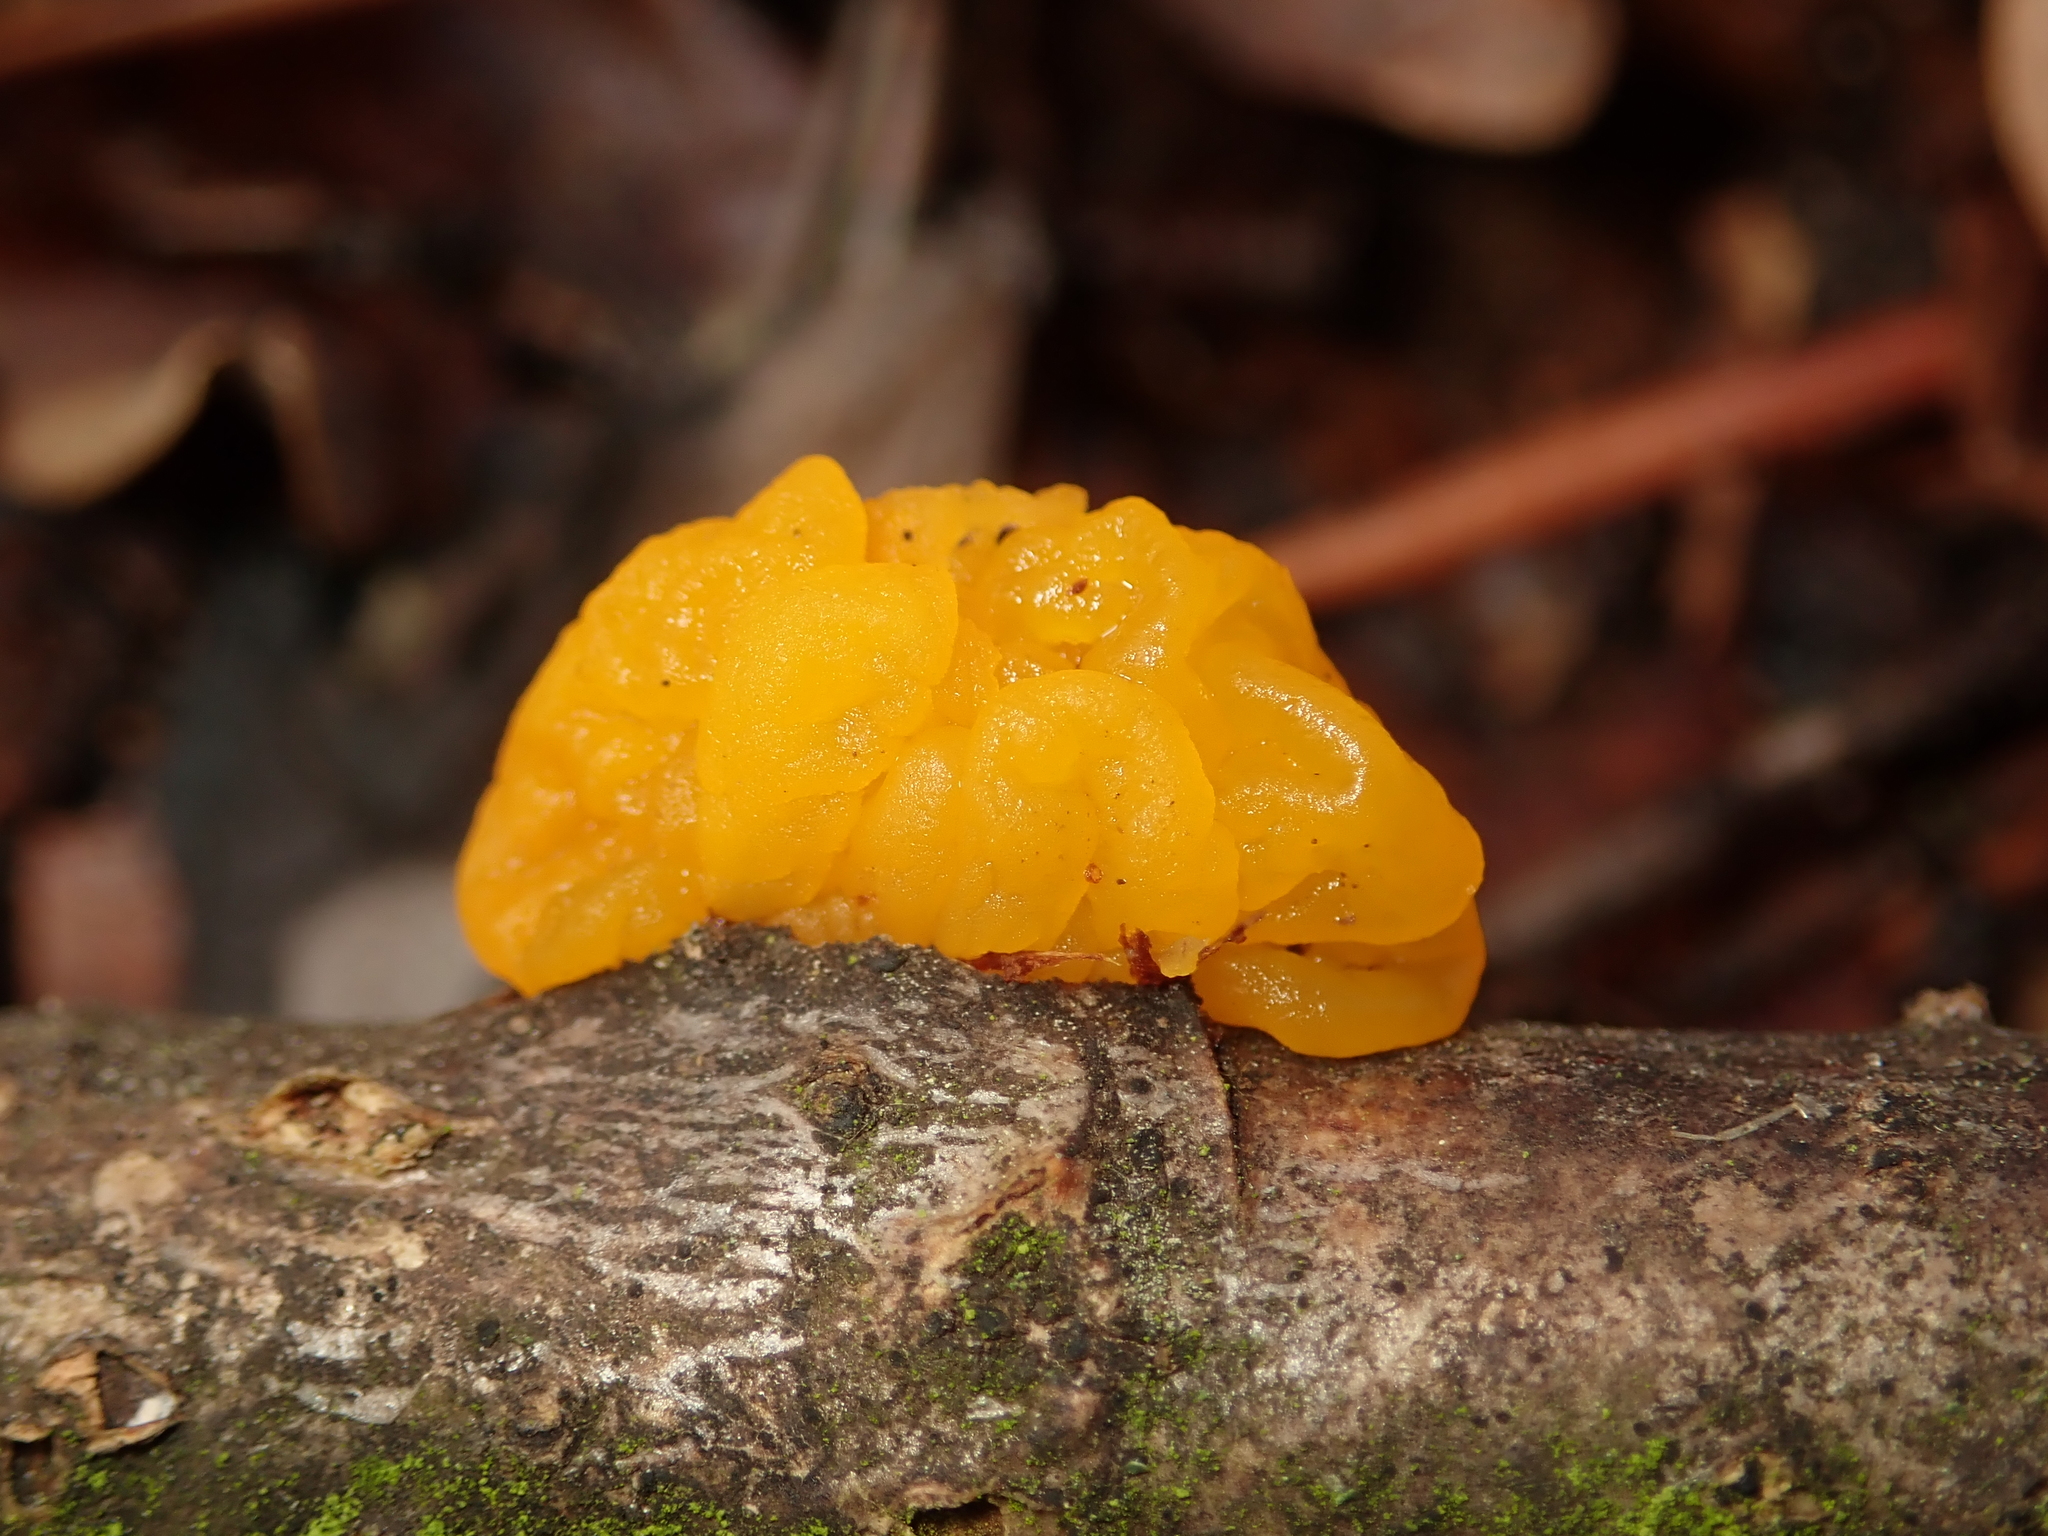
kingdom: Fungi
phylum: Basidiomycota
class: Tremellomycetes
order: Tremellales
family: Tremellaceae
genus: Tremella
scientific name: Tremella mesenterica
